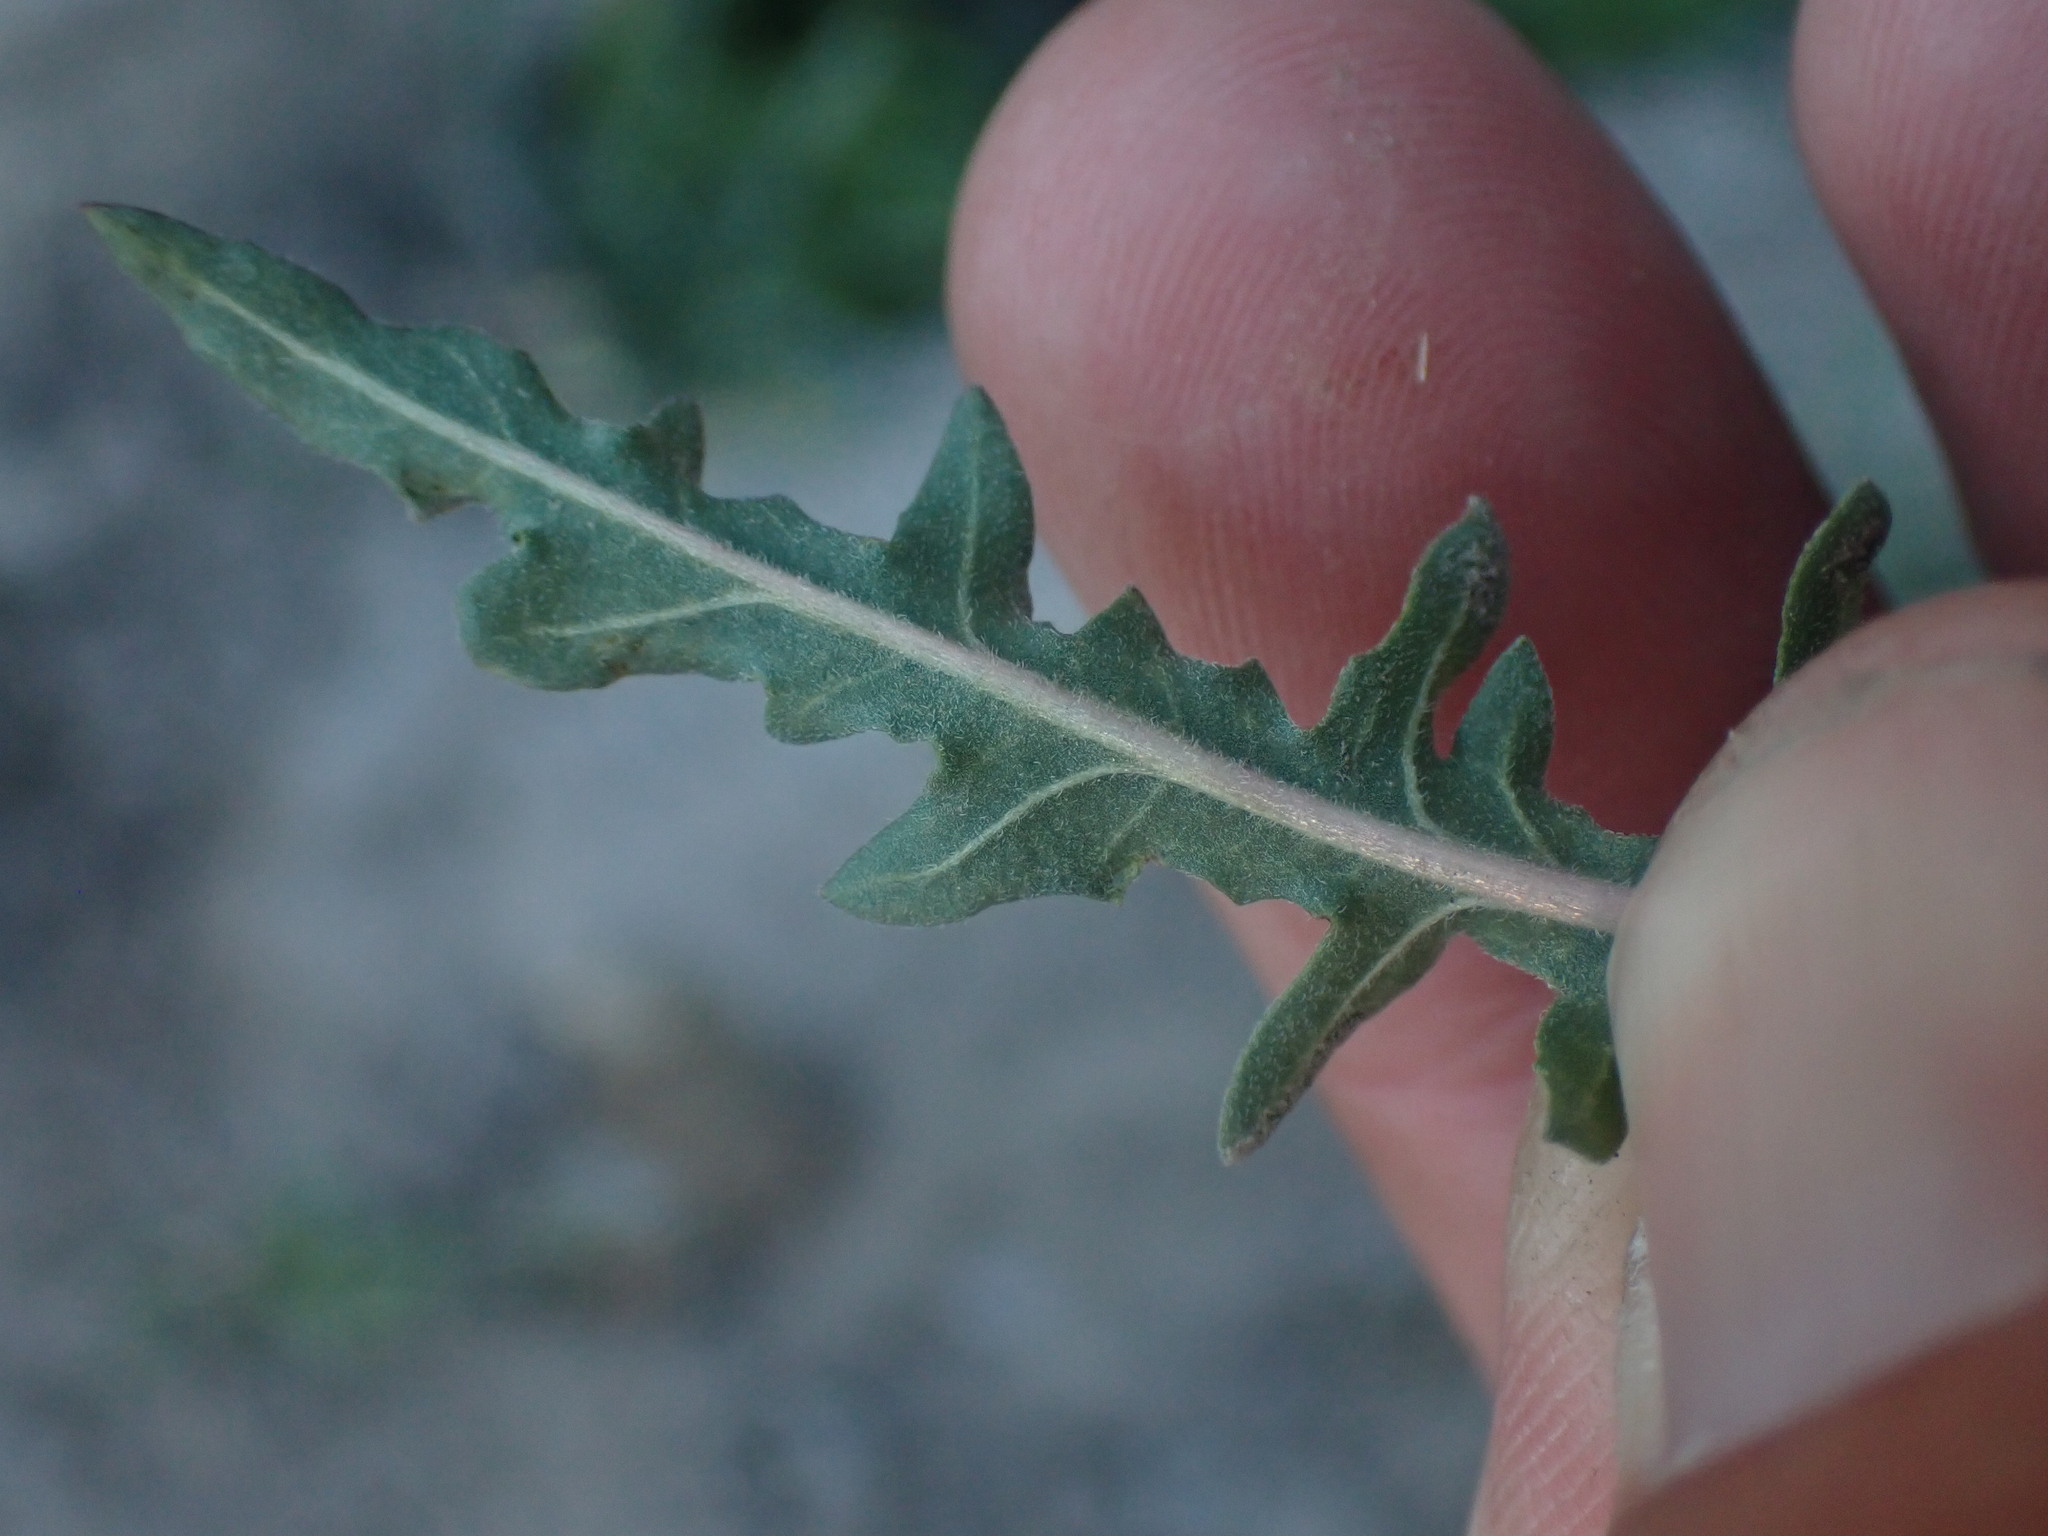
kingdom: Plantae
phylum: Tracheophyta
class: Magnoliopsida
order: Myrtales
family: Onagraceae
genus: Taraxia
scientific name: Taraxia breviflora
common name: Few-flowered evening primrose
